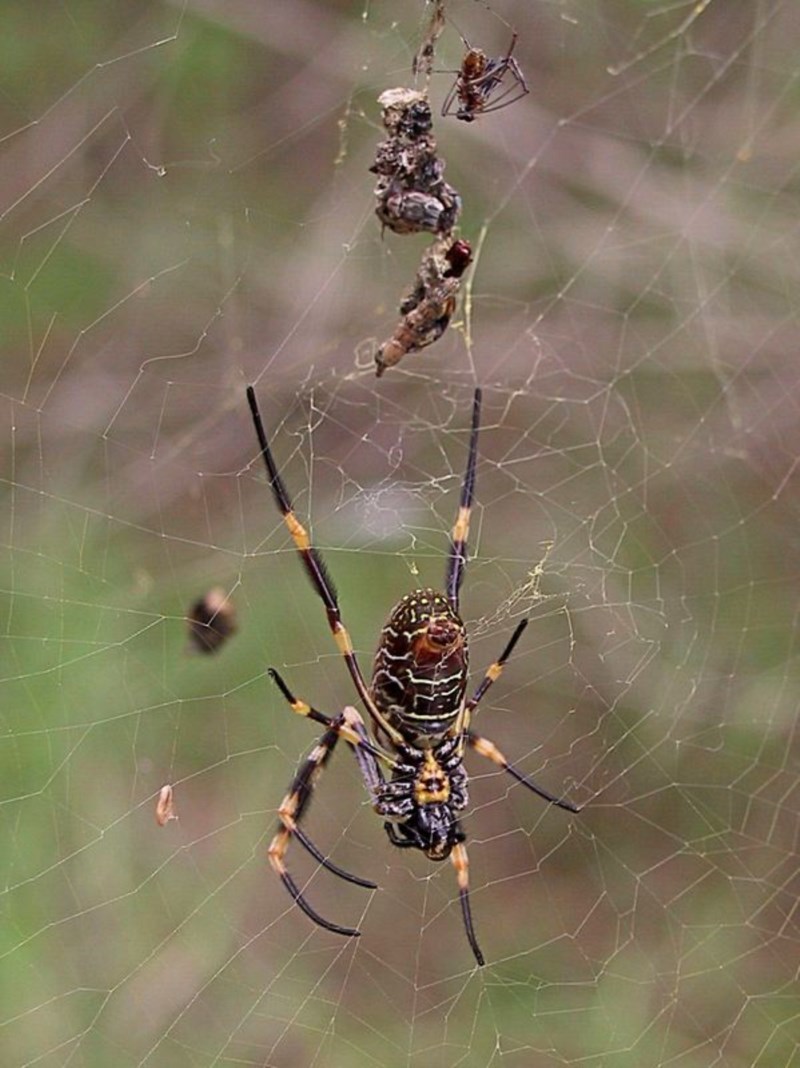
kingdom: Animalia
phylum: Arthropoda
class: Arachnida
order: Araneae
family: Araneidae
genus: Trichonephila
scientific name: Trichonephila plumipes
